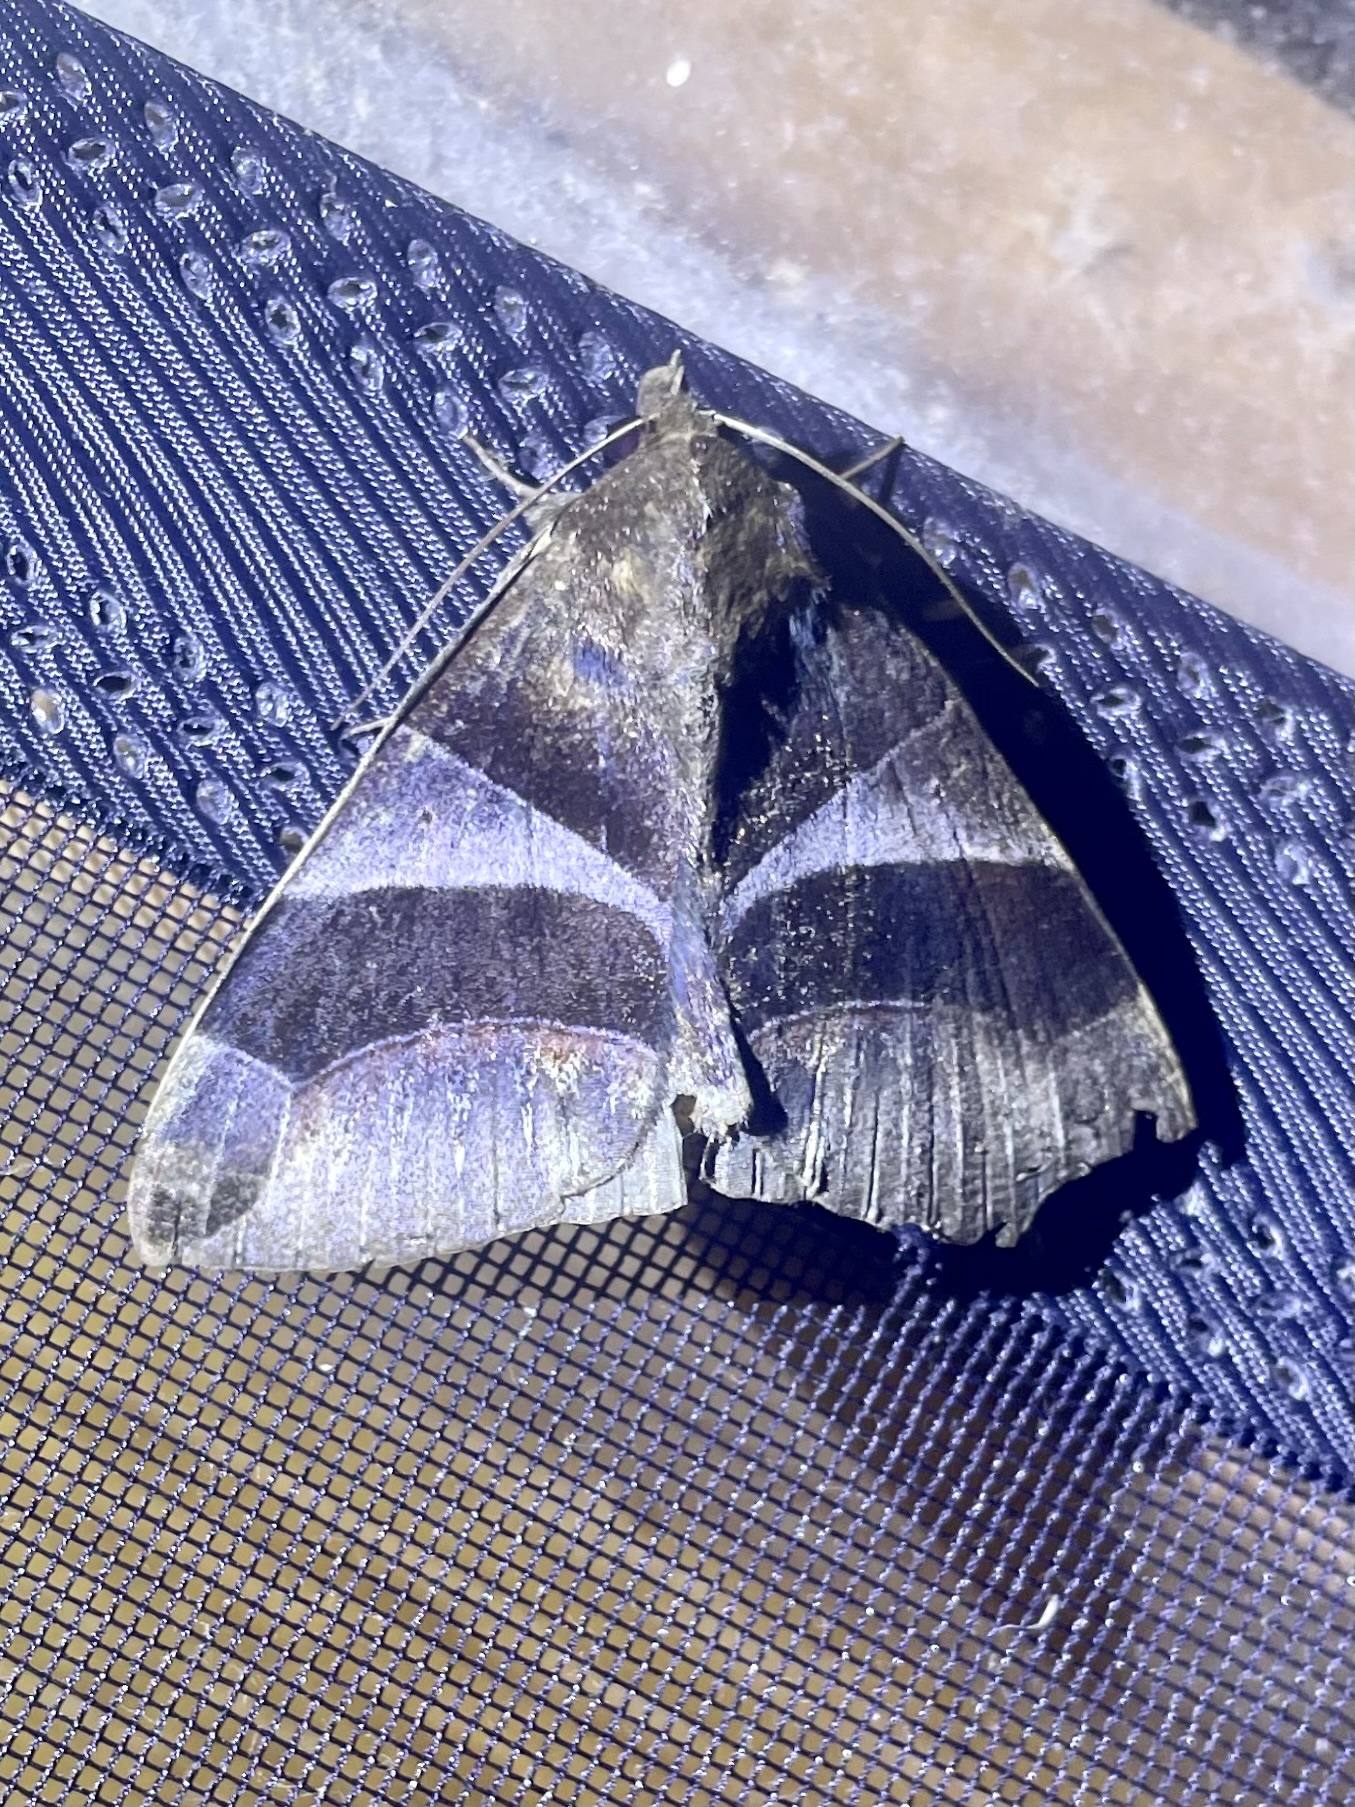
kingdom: Animalia
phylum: Arthropoda
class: Insecta
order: Lepidoptera
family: Erebidae
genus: Dysgonia
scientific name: Dysgonia purpurata
